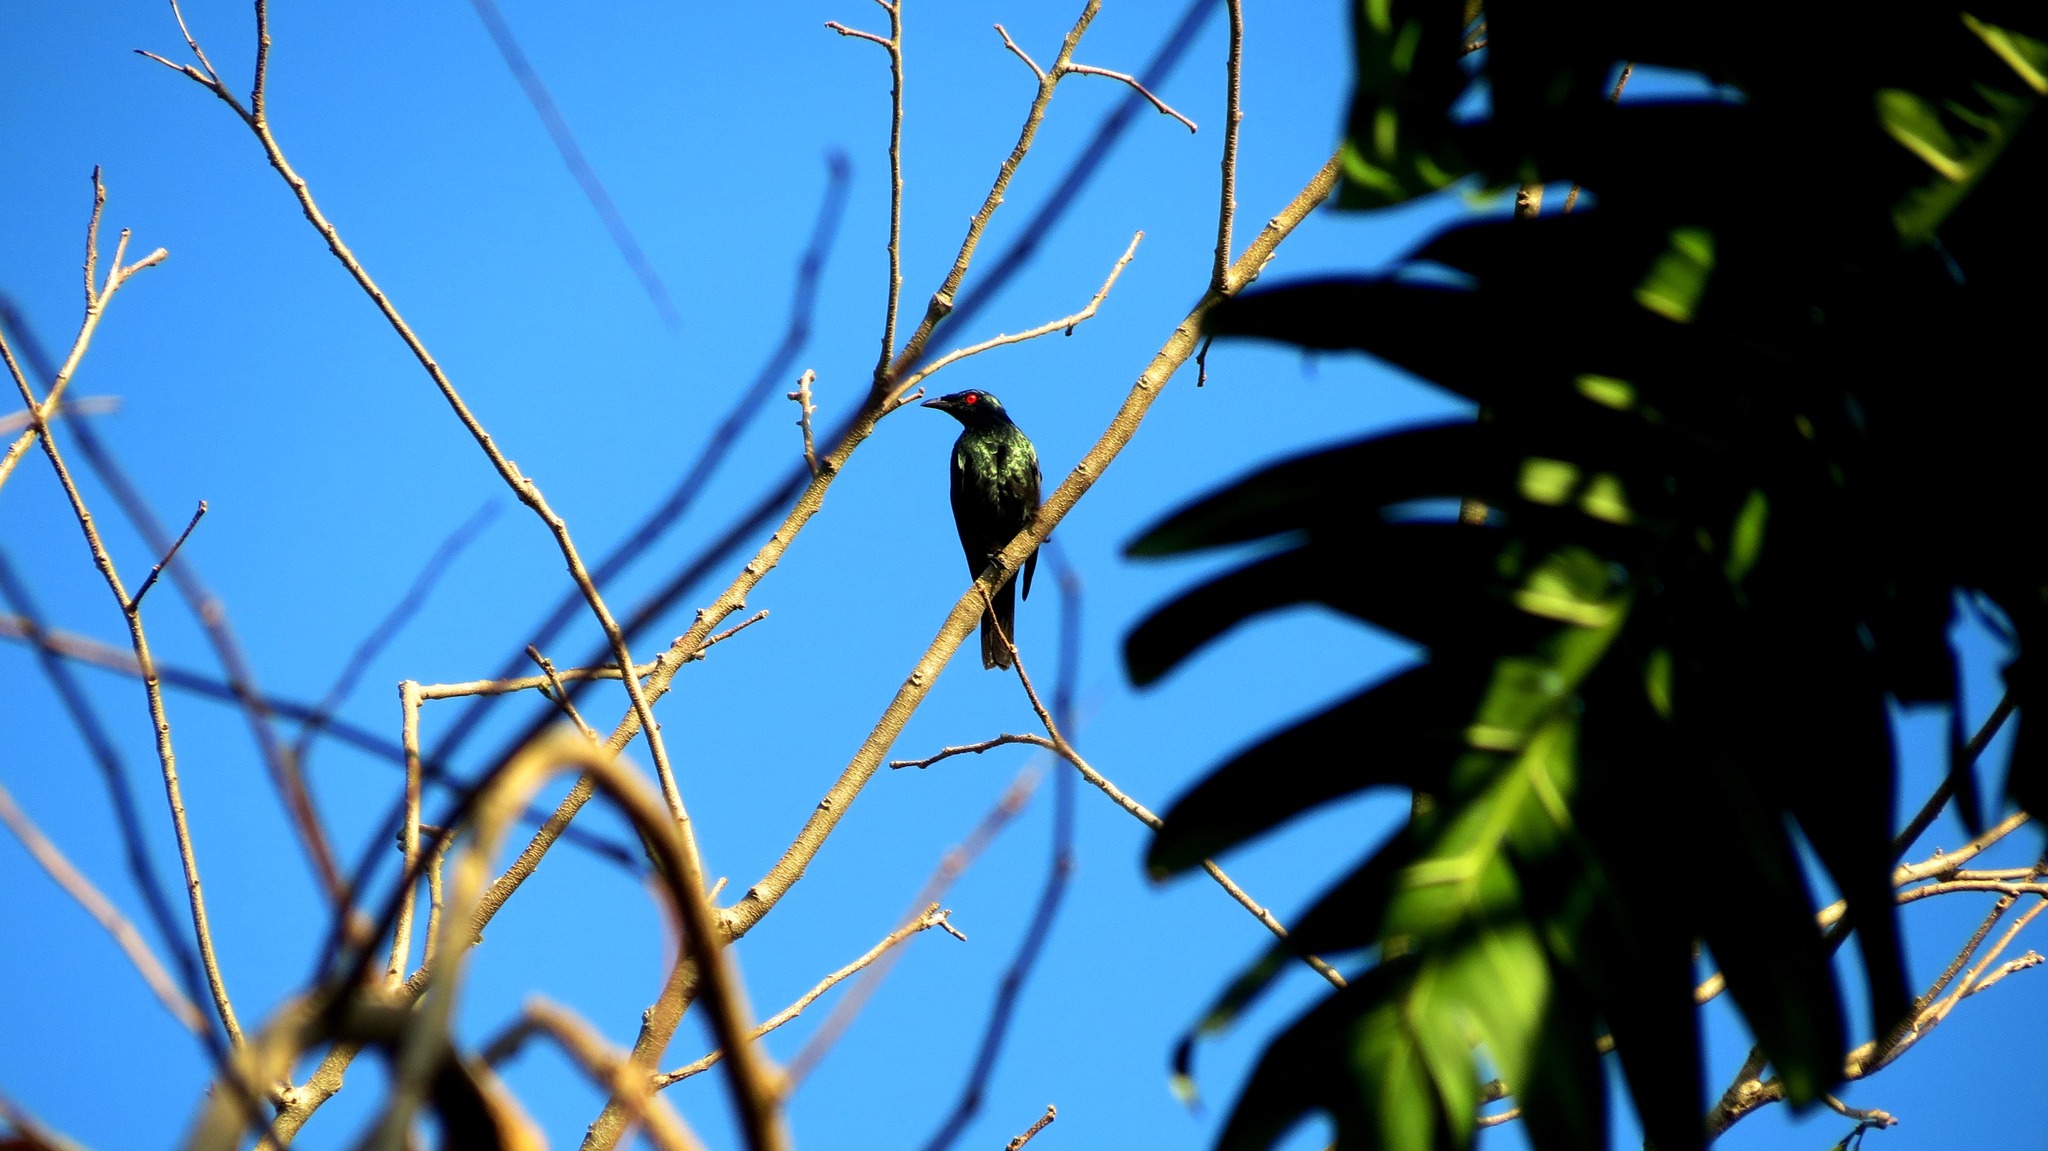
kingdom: Animalia
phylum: Chordata
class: Aves
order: Passeriformes
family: Sturnidae
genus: Aplonis
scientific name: Aplonis panayensis
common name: Asian glossy starling
